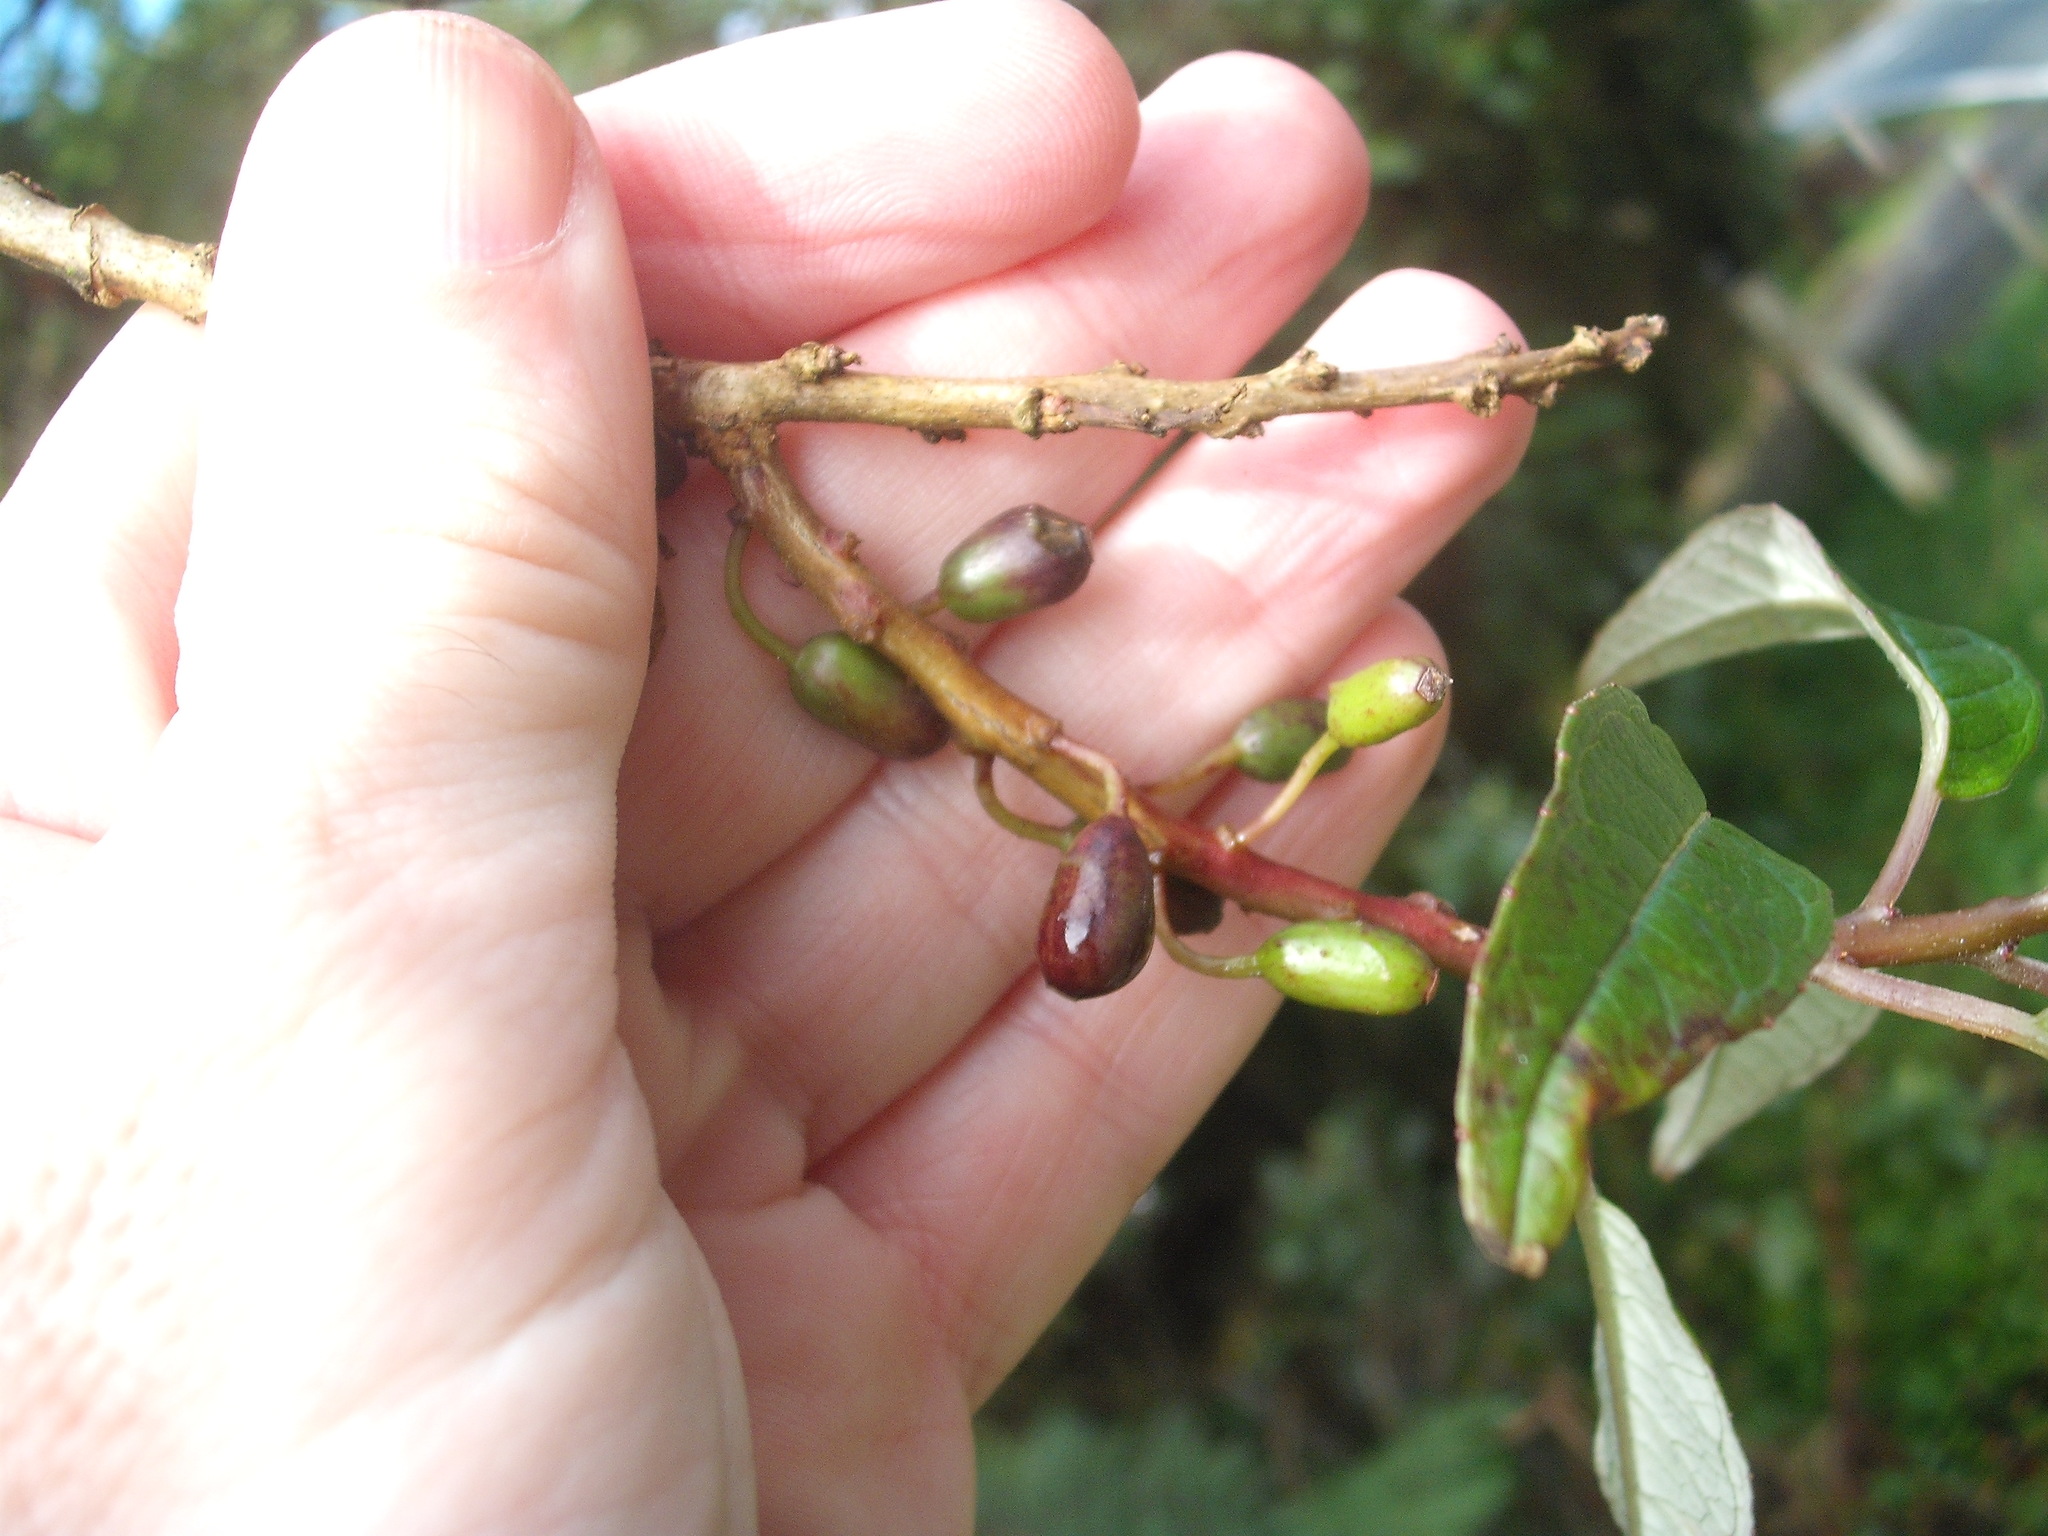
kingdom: Plantae
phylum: Tracheophyta
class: Magnoliopsida
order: Myrtales
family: Onagraceae
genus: Fuchsia
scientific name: Fuchsia excorticata
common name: Tree fuchsia
